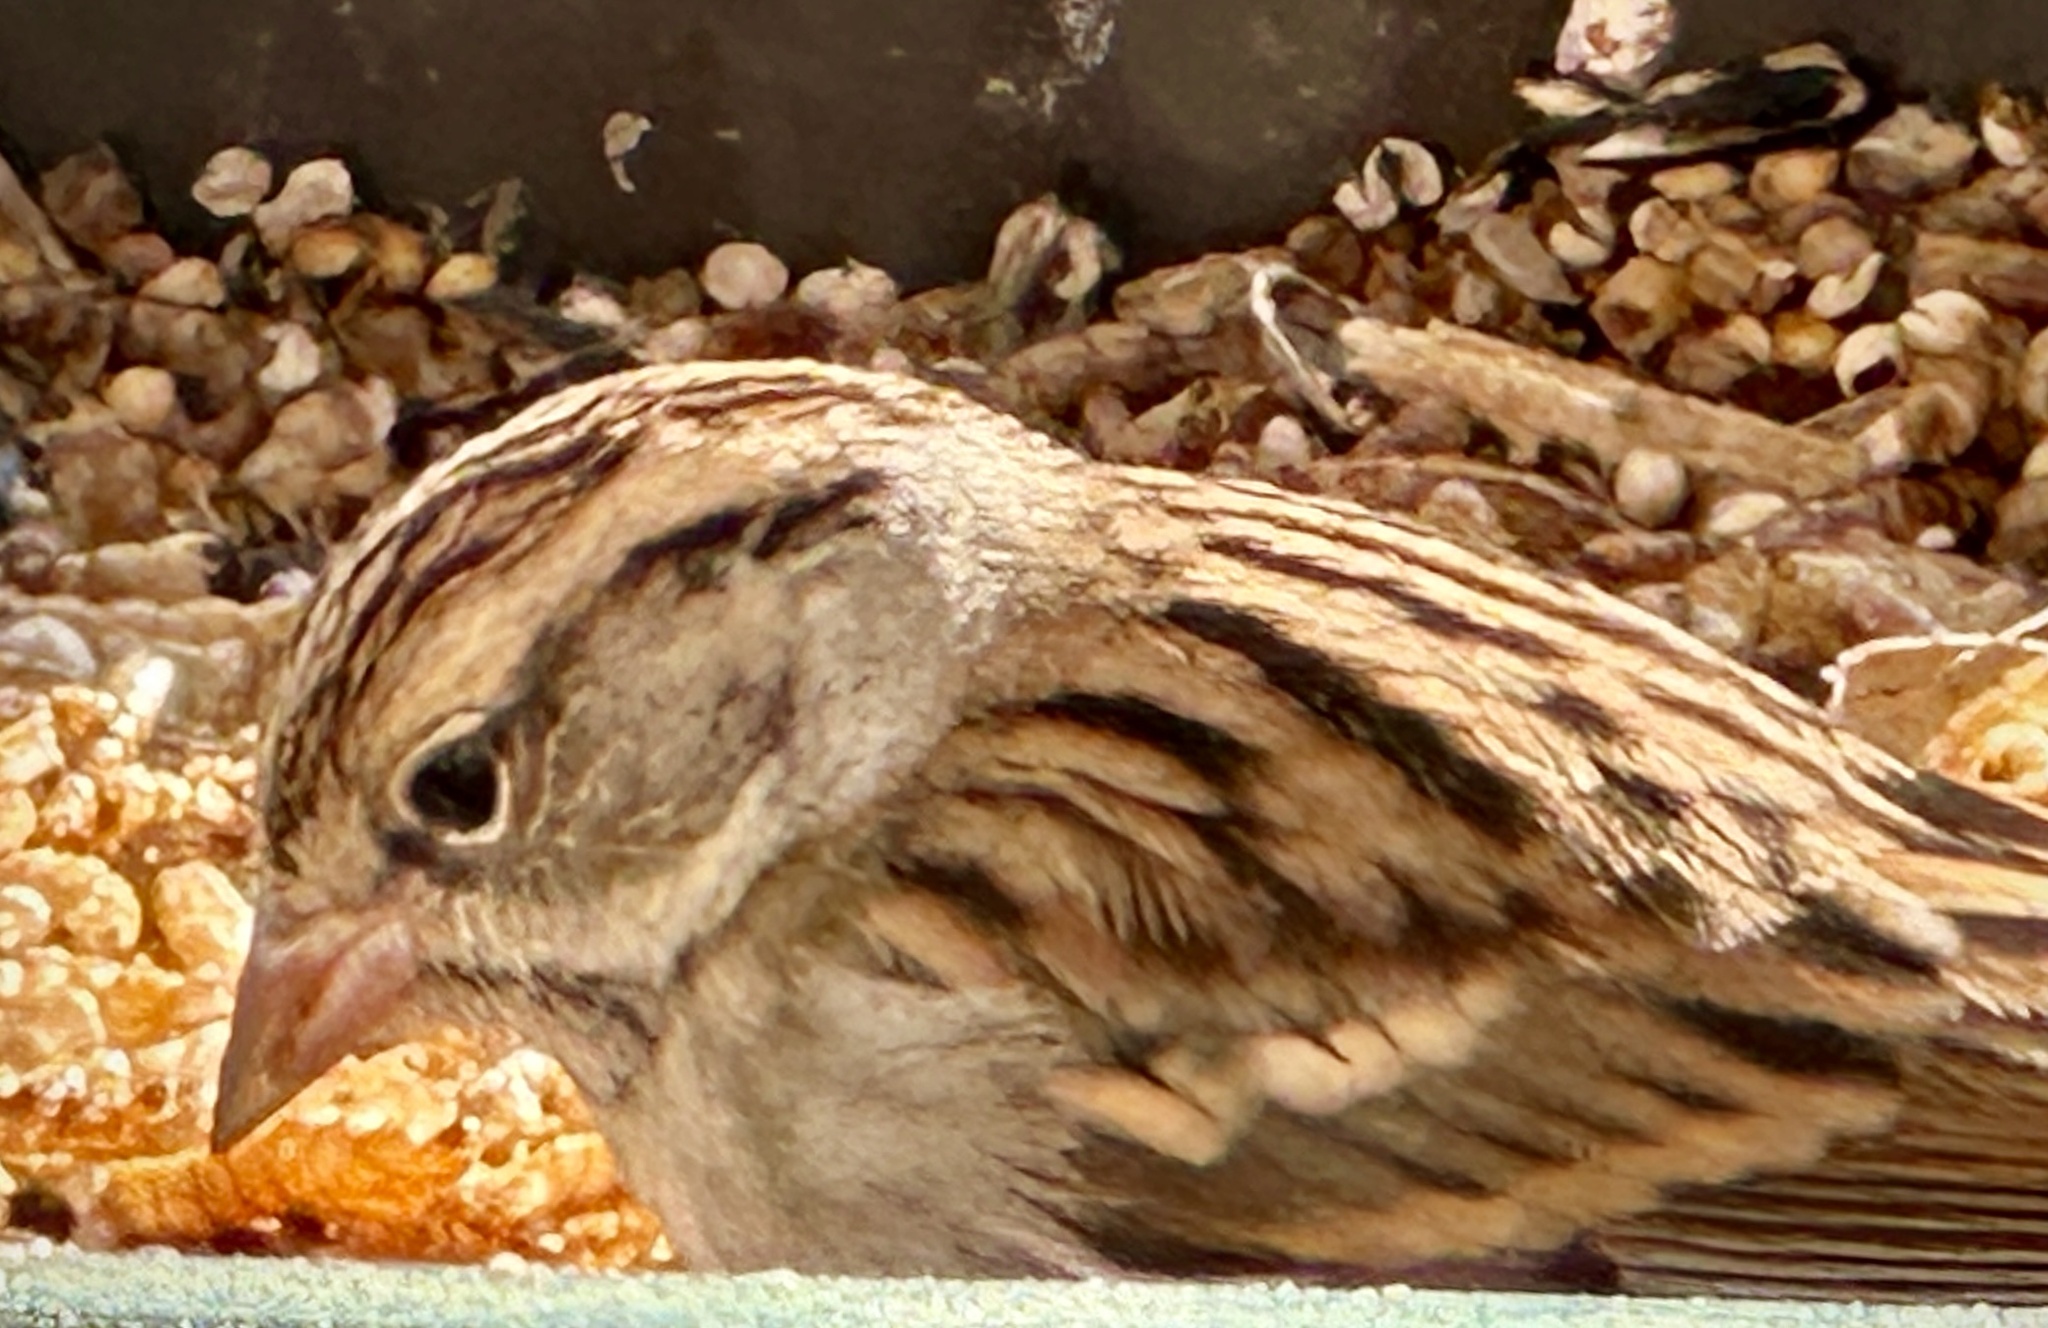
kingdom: Animalia
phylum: Chordata
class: Aves
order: Passeriformes
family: Passerellidae
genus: Spizella
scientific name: Spizella passerina
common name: Chipping sparrow
